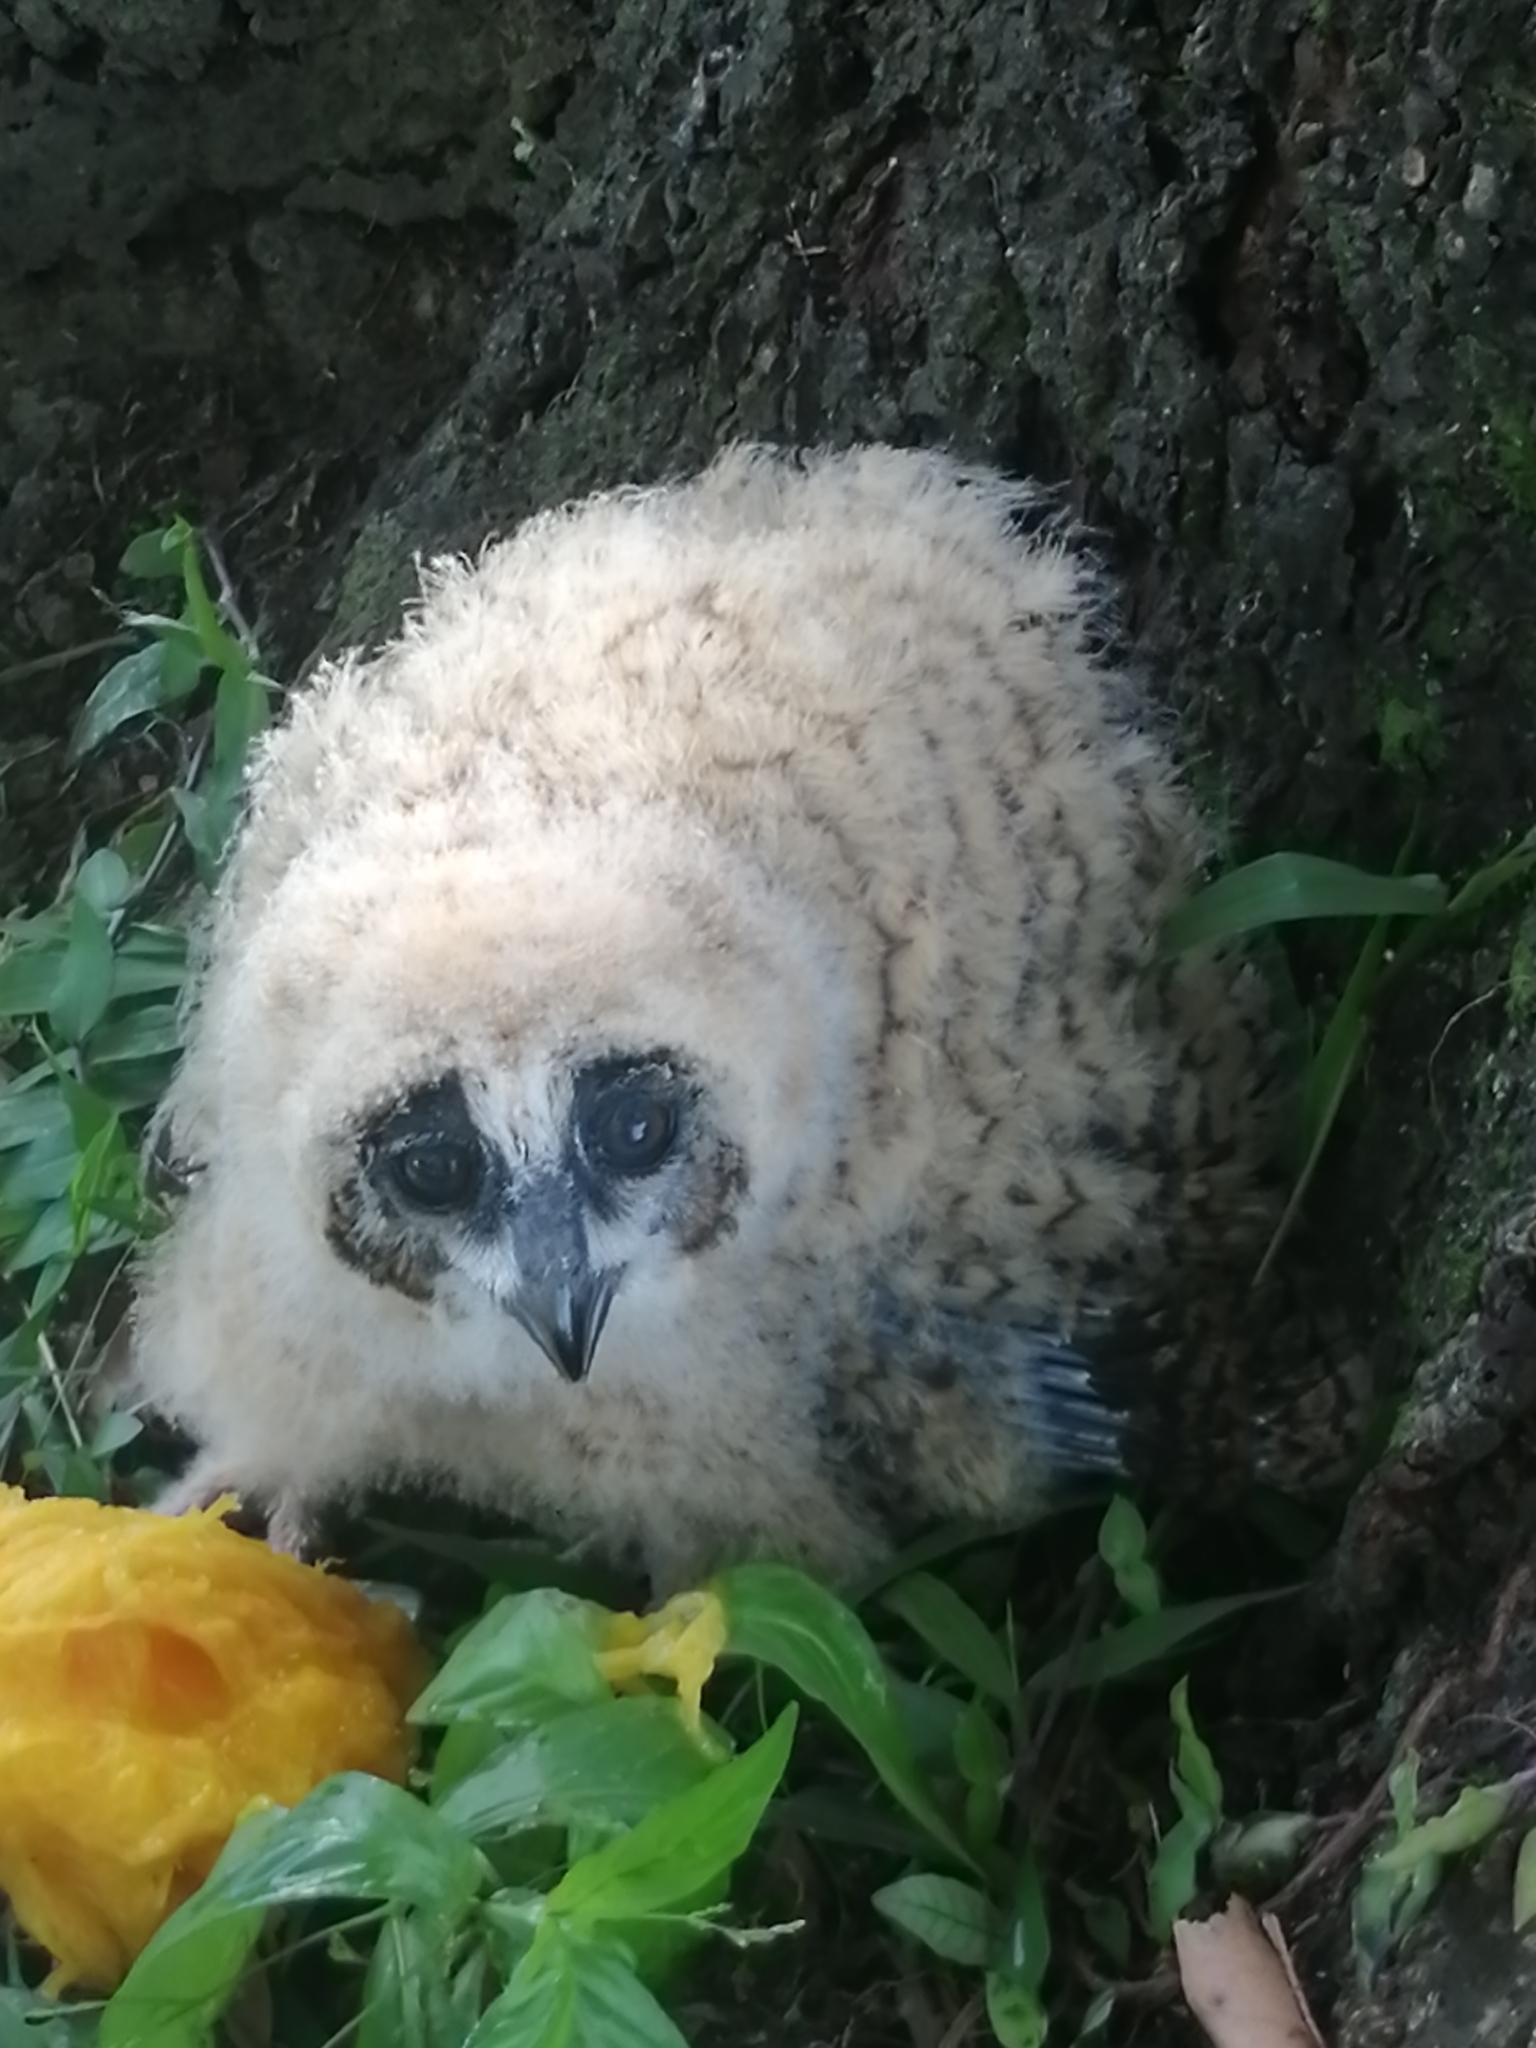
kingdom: Animalia
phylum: Chordata
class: Aves
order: Strigiformes
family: Strigidae
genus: Pseudoscops
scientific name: Pseudoscops clamator
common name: Striped owl
